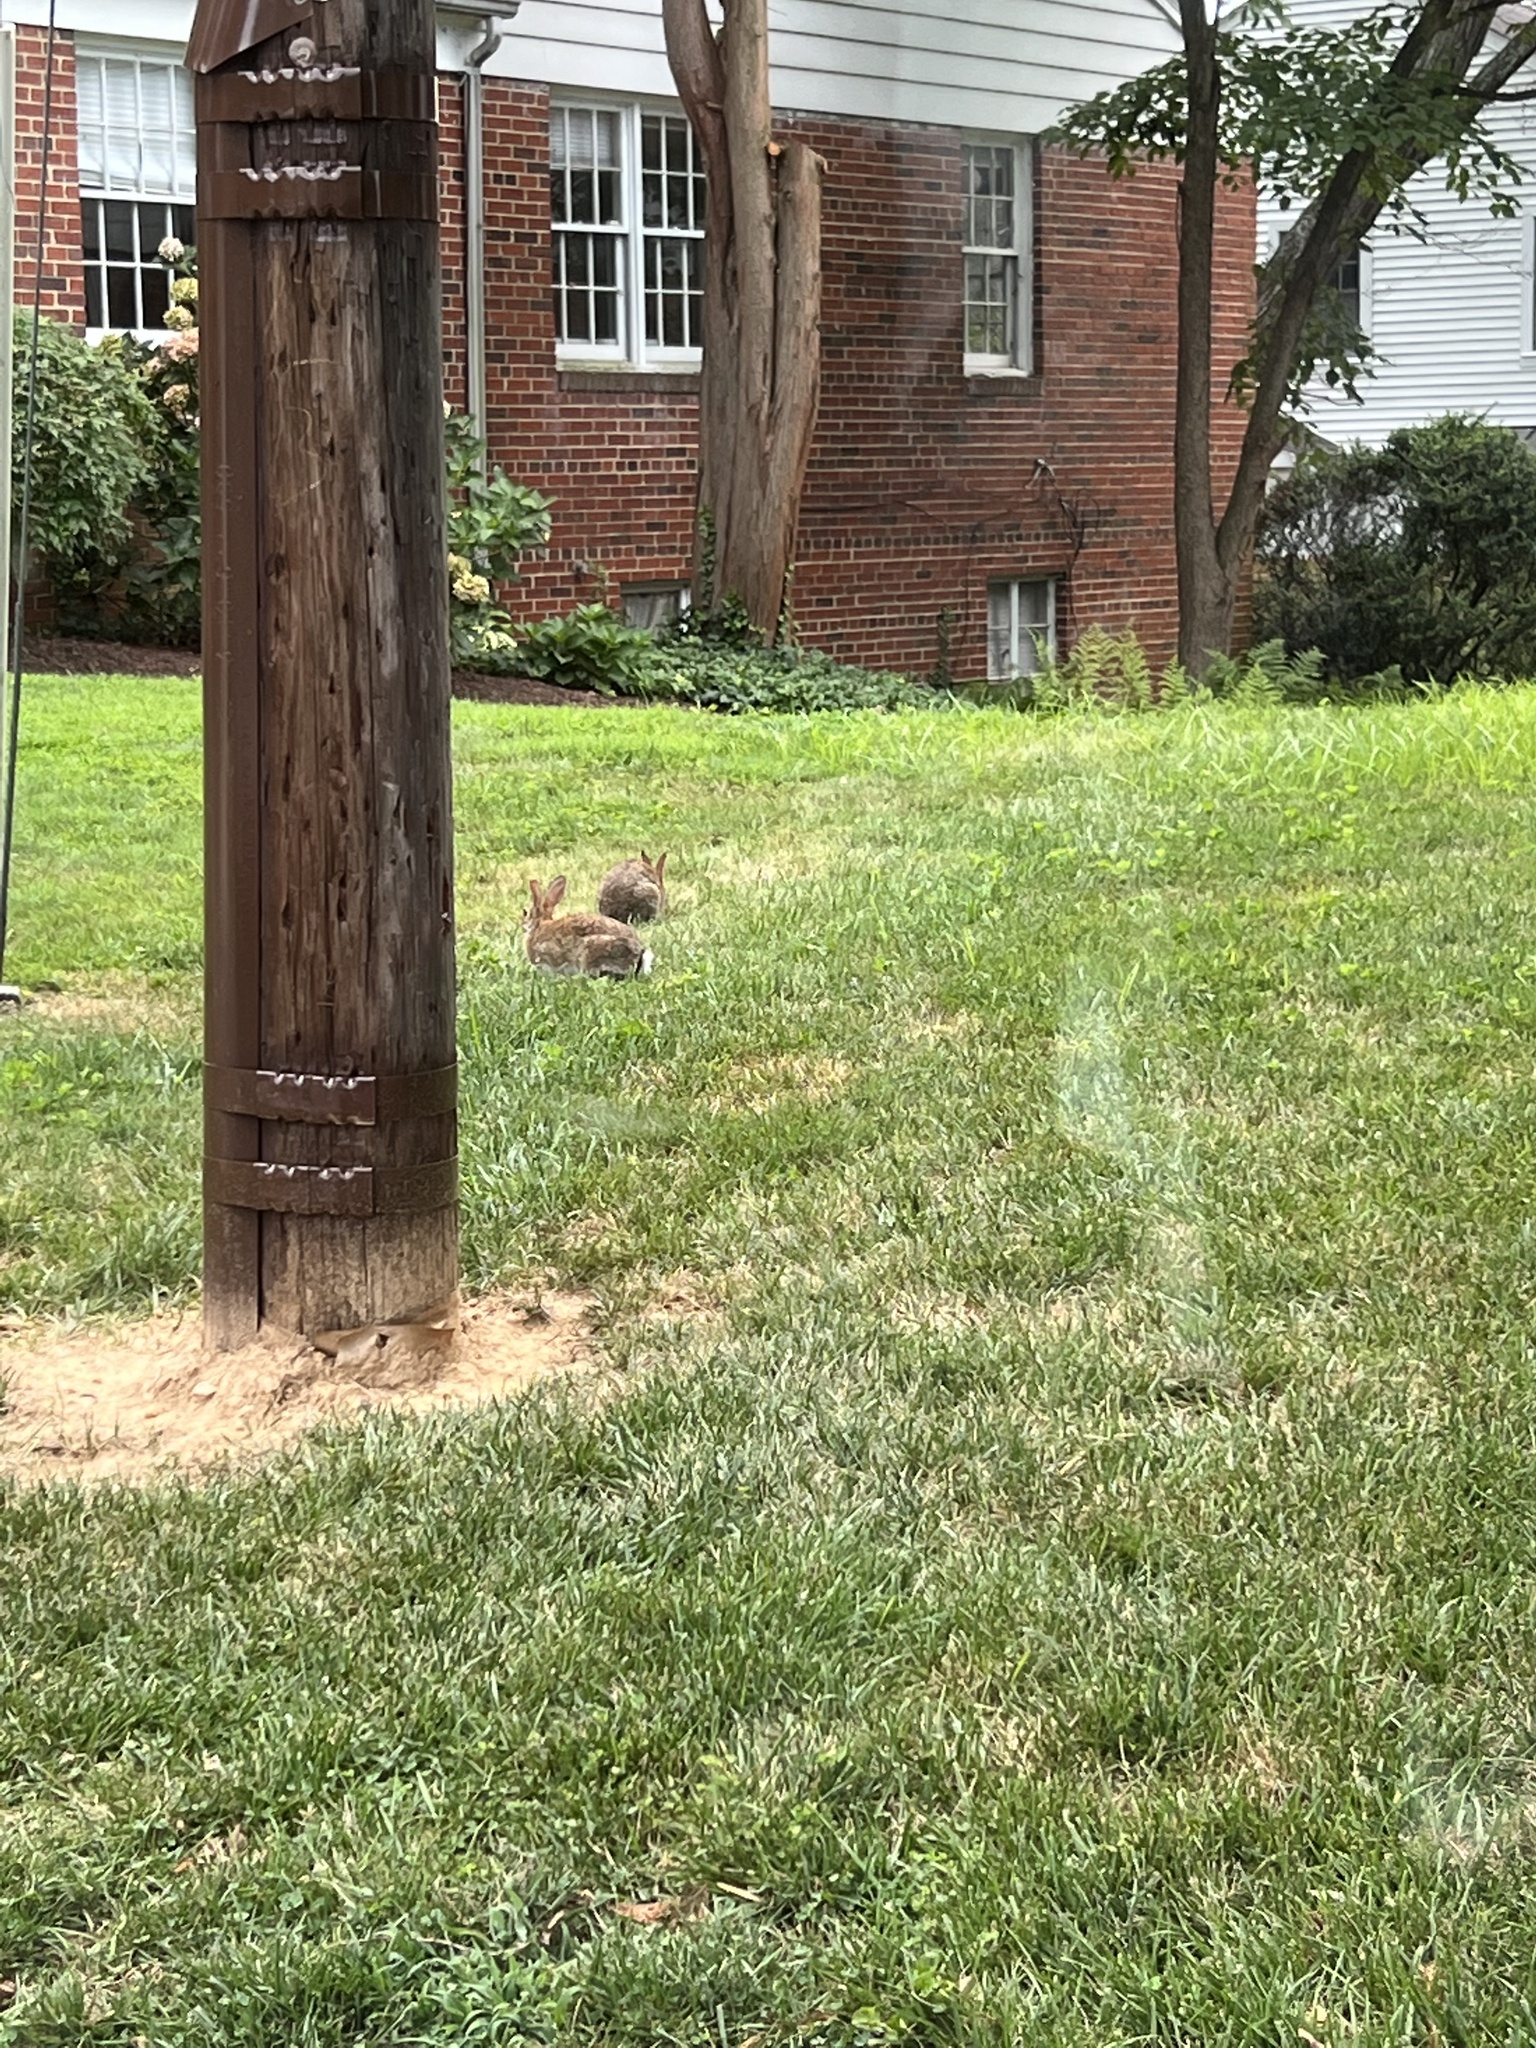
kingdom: Animalia
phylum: Chordata
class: Mammalia
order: Lagomorpha
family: Leporidae
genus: Sylvilagus
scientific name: Sylvilagus floridanus
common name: Eastern cottontail
